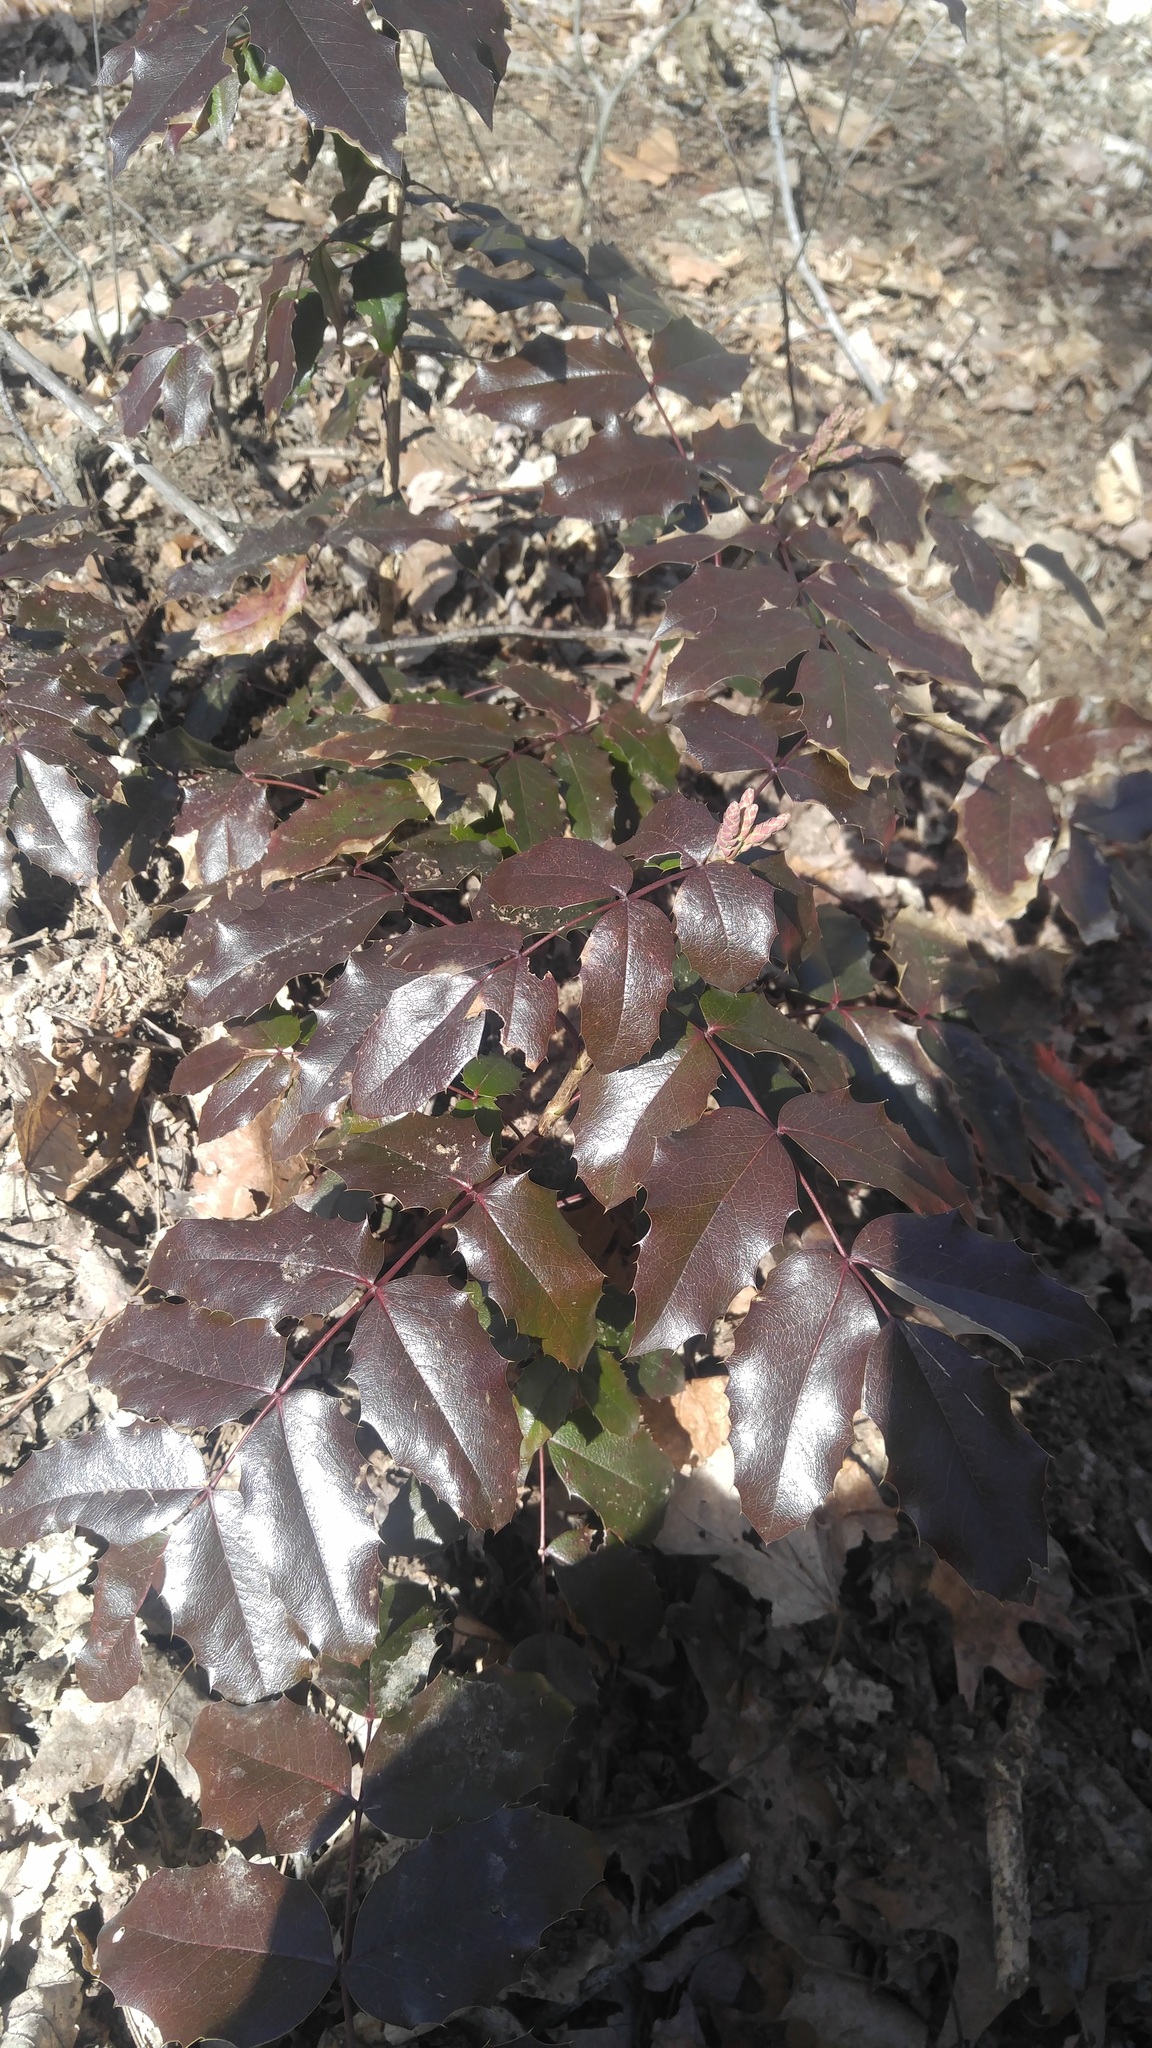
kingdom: Plantae
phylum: Tracheophyta
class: Magnoliopsida
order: Ranunculales
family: Berberidaceae
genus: Mahonia
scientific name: Mahonia aquifolium
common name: Oregon-grape
